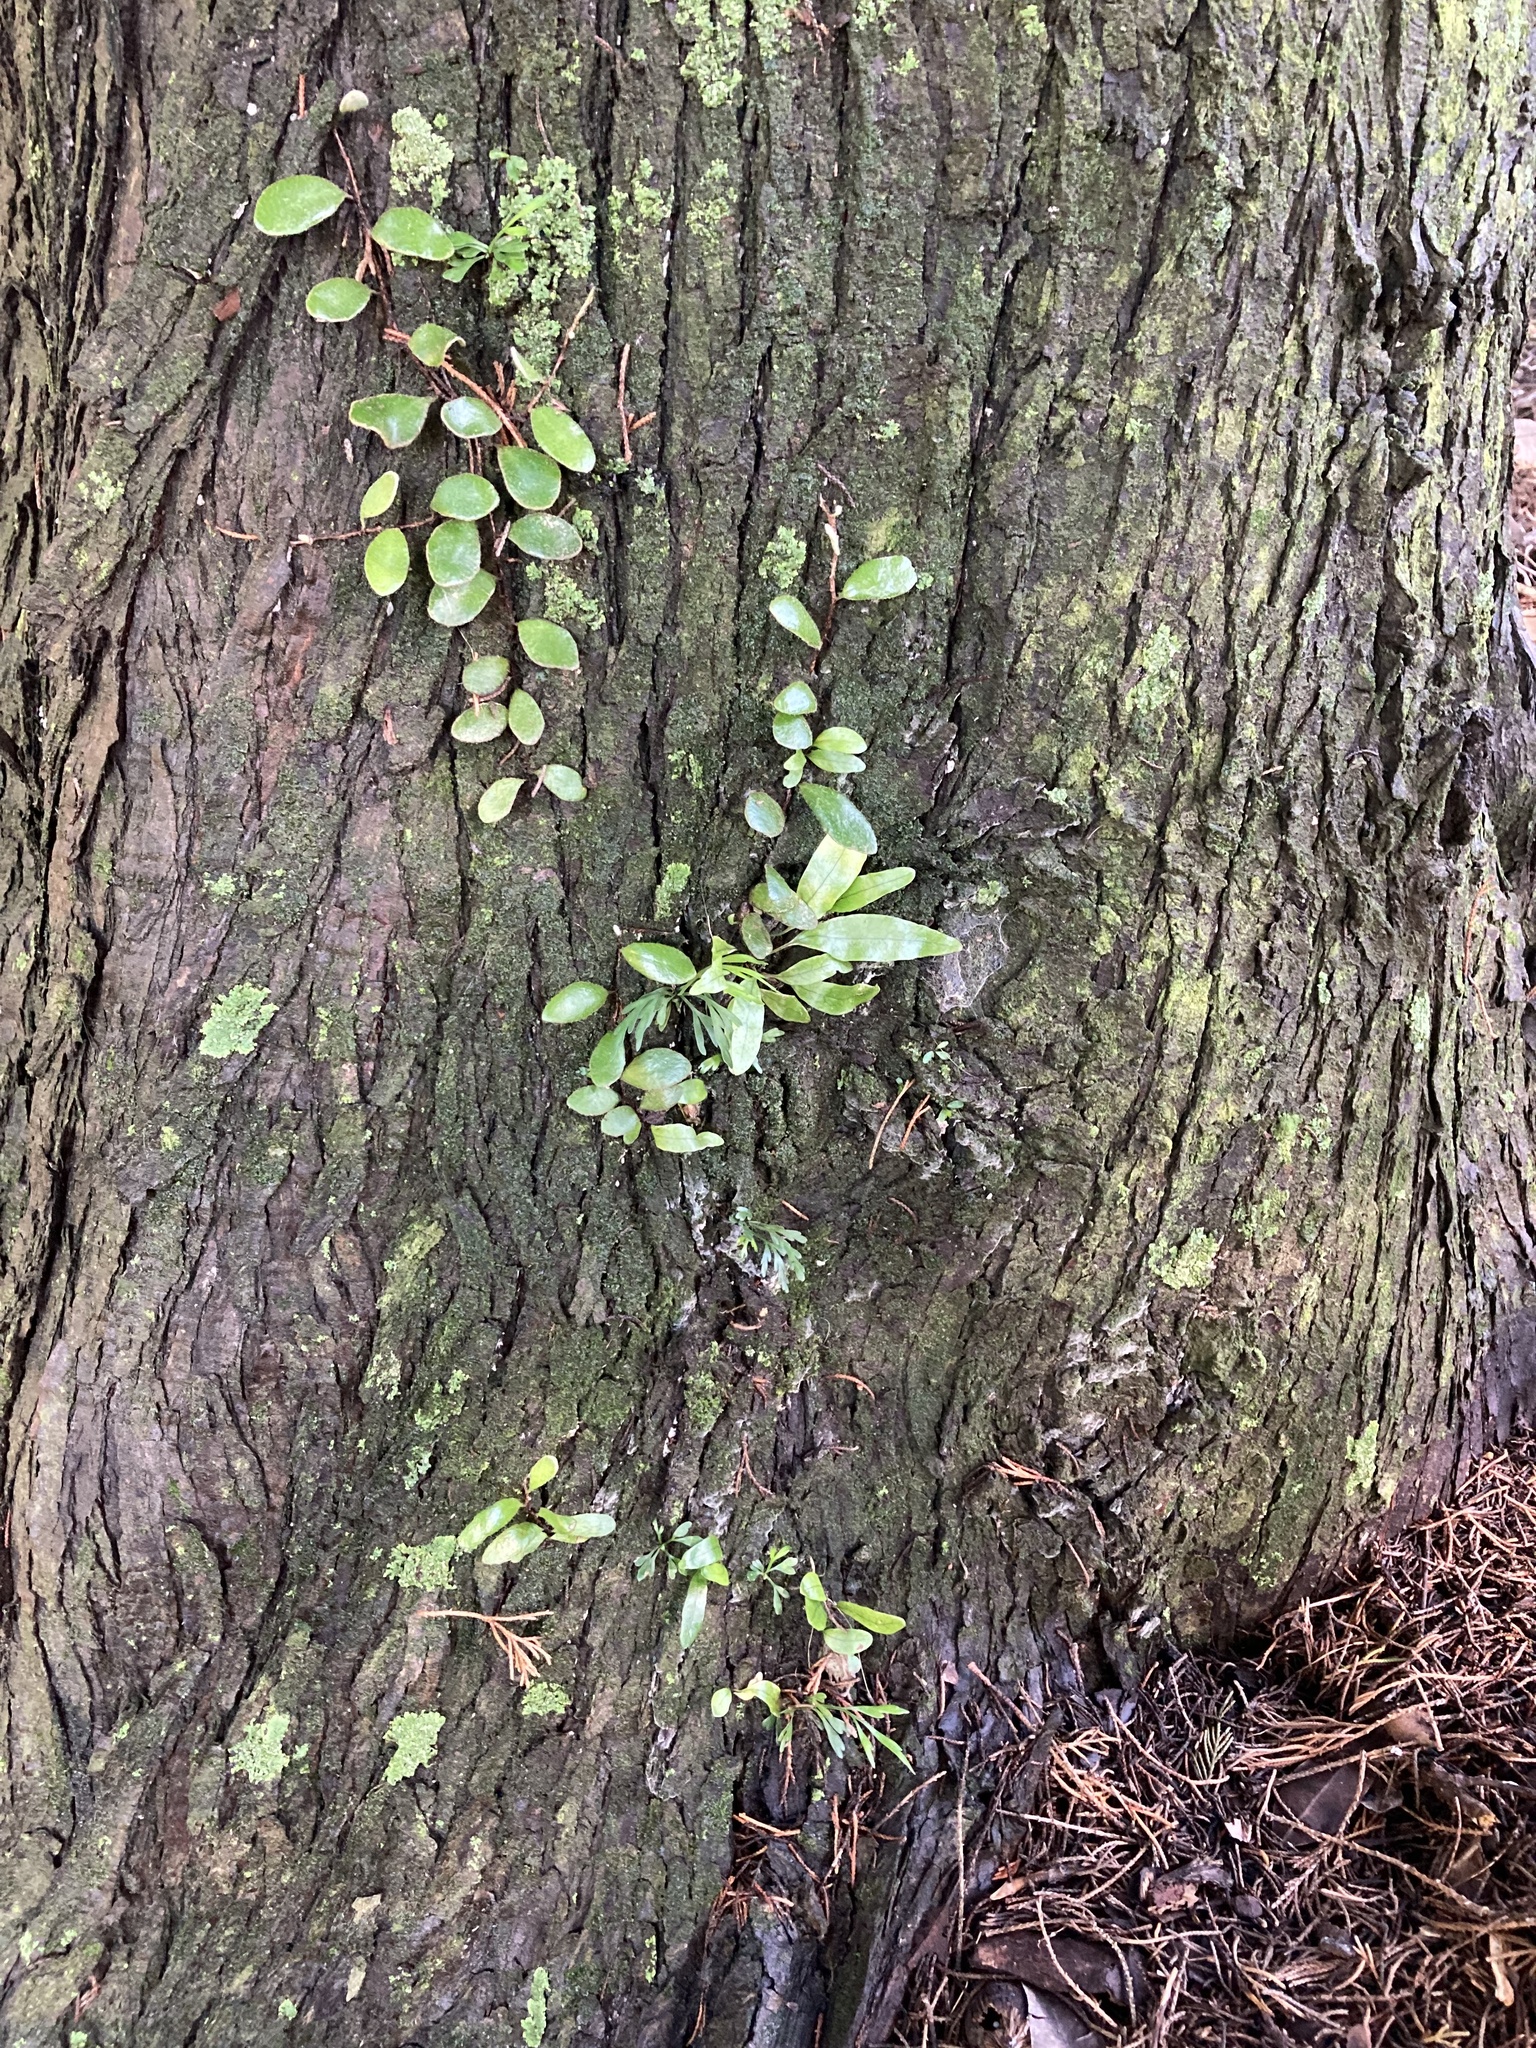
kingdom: Plantae
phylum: Tracheophyta
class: Polypodiopsida
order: Polypodiales
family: Polypodiaceae
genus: Pyrrosia
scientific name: Pyrrosia eleagnifolia
